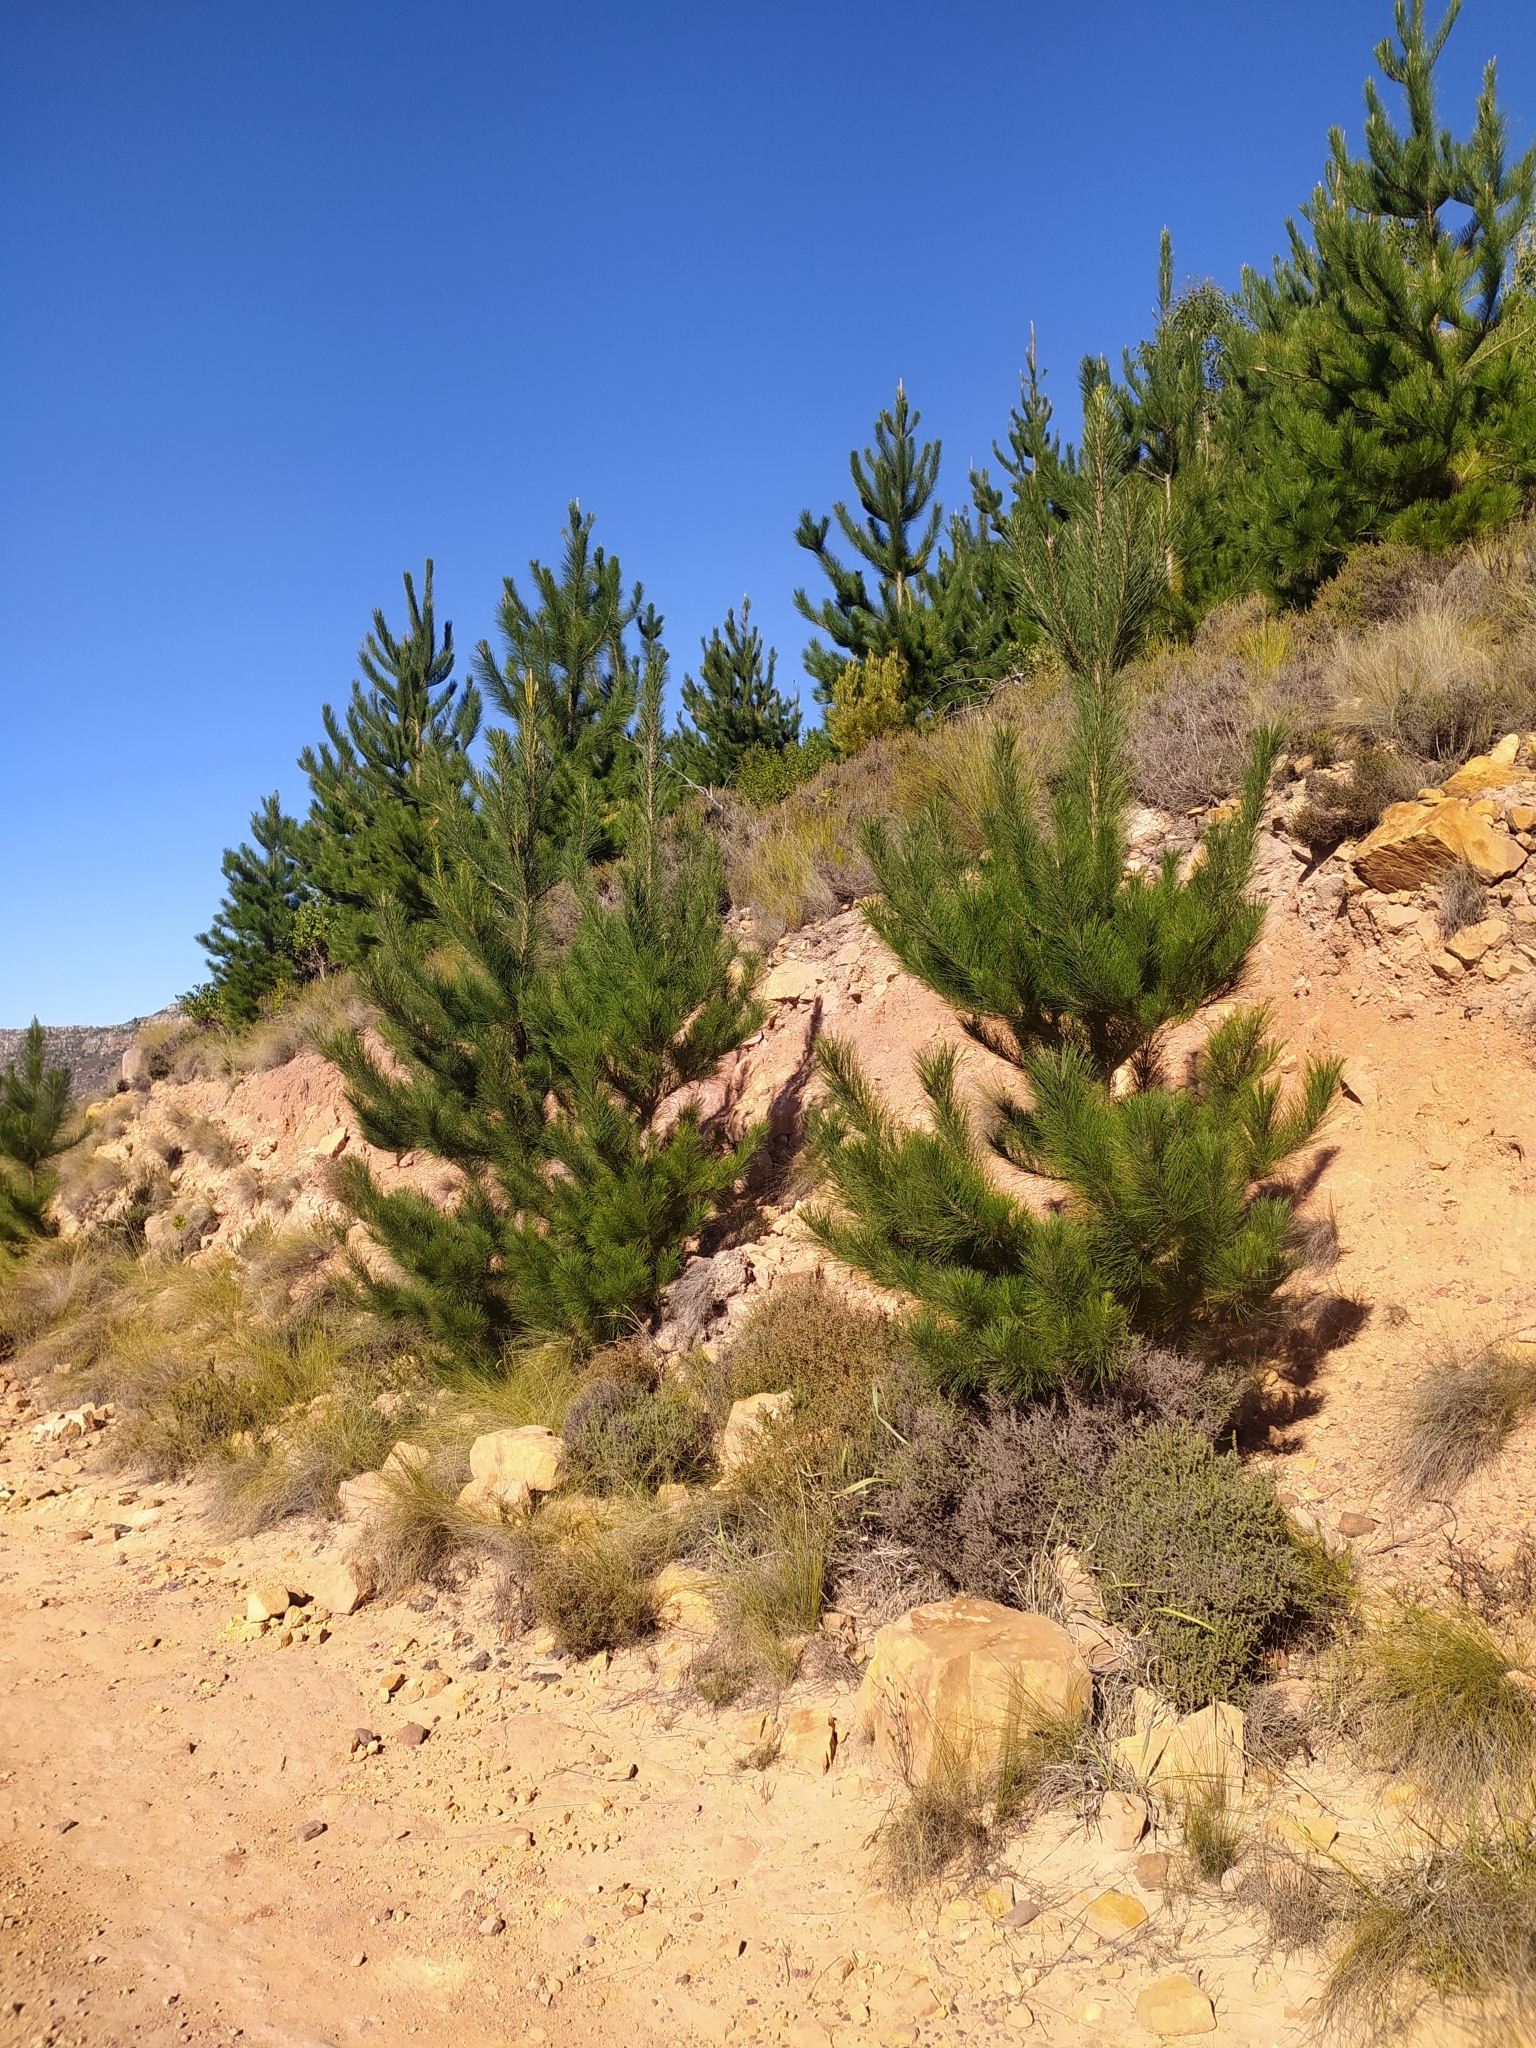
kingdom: Plantae
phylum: Tracheophyta
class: Pinopsida
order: Pinales
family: Pinaceae
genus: Pinus
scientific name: Pinus radiata
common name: Monterey pine
